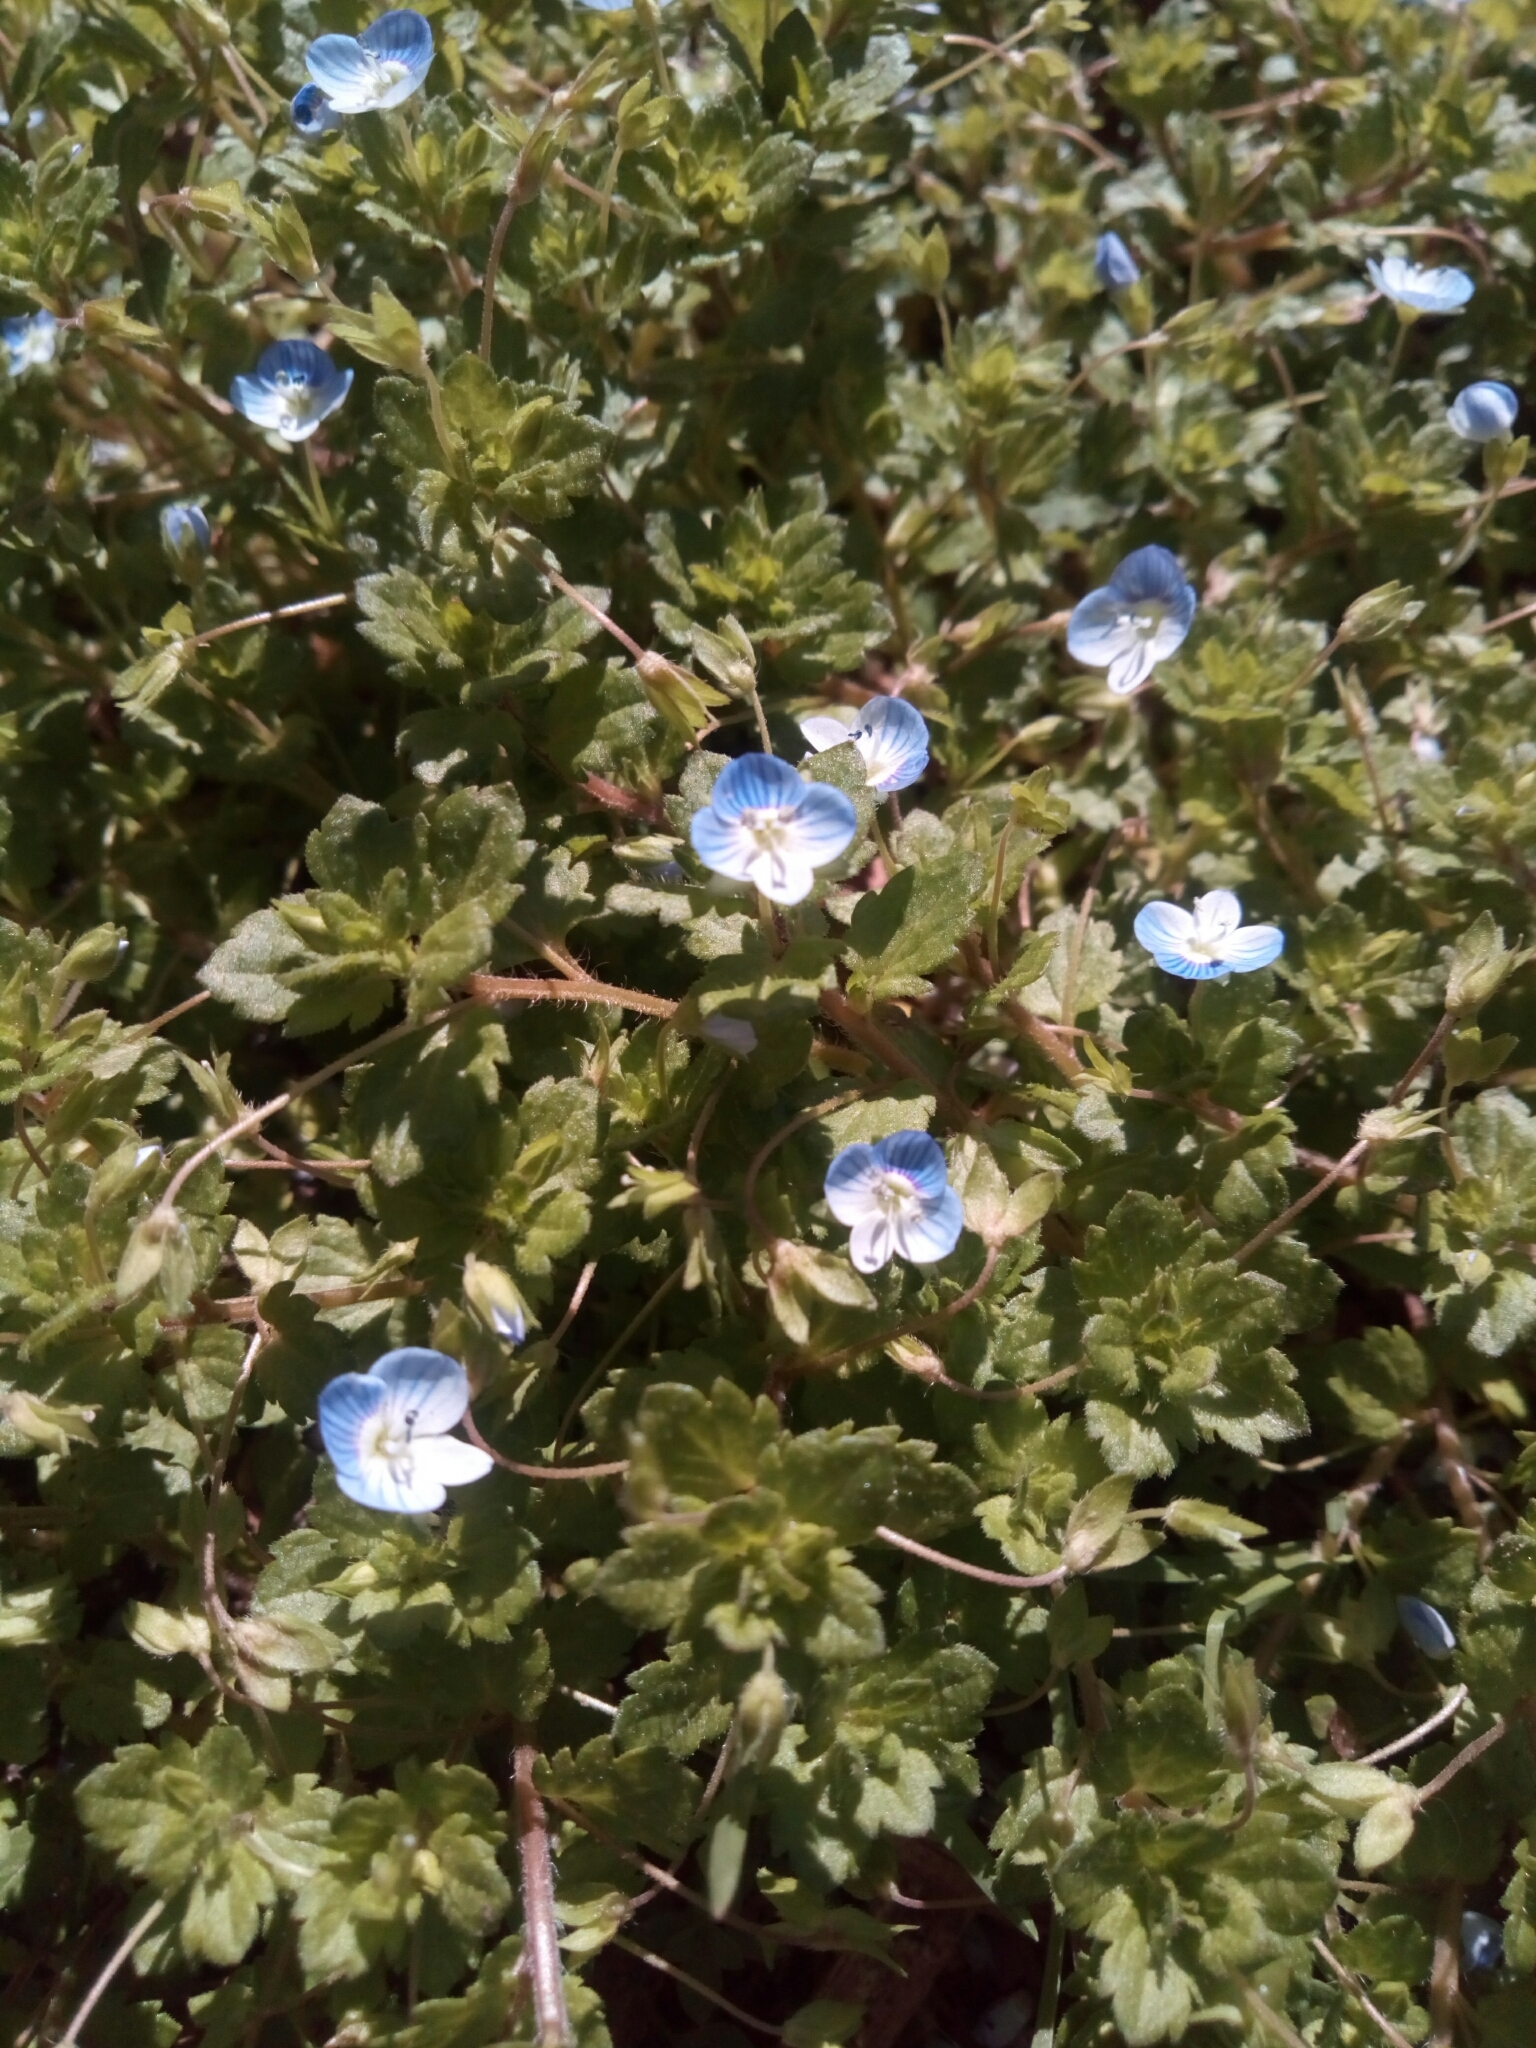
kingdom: Plantae
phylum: Tracheophyta
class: Magnoliopsida
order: Lamiales
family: Plantaginaceae
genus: Veronica
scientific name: Veronica persica
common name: Common field-speedwell
